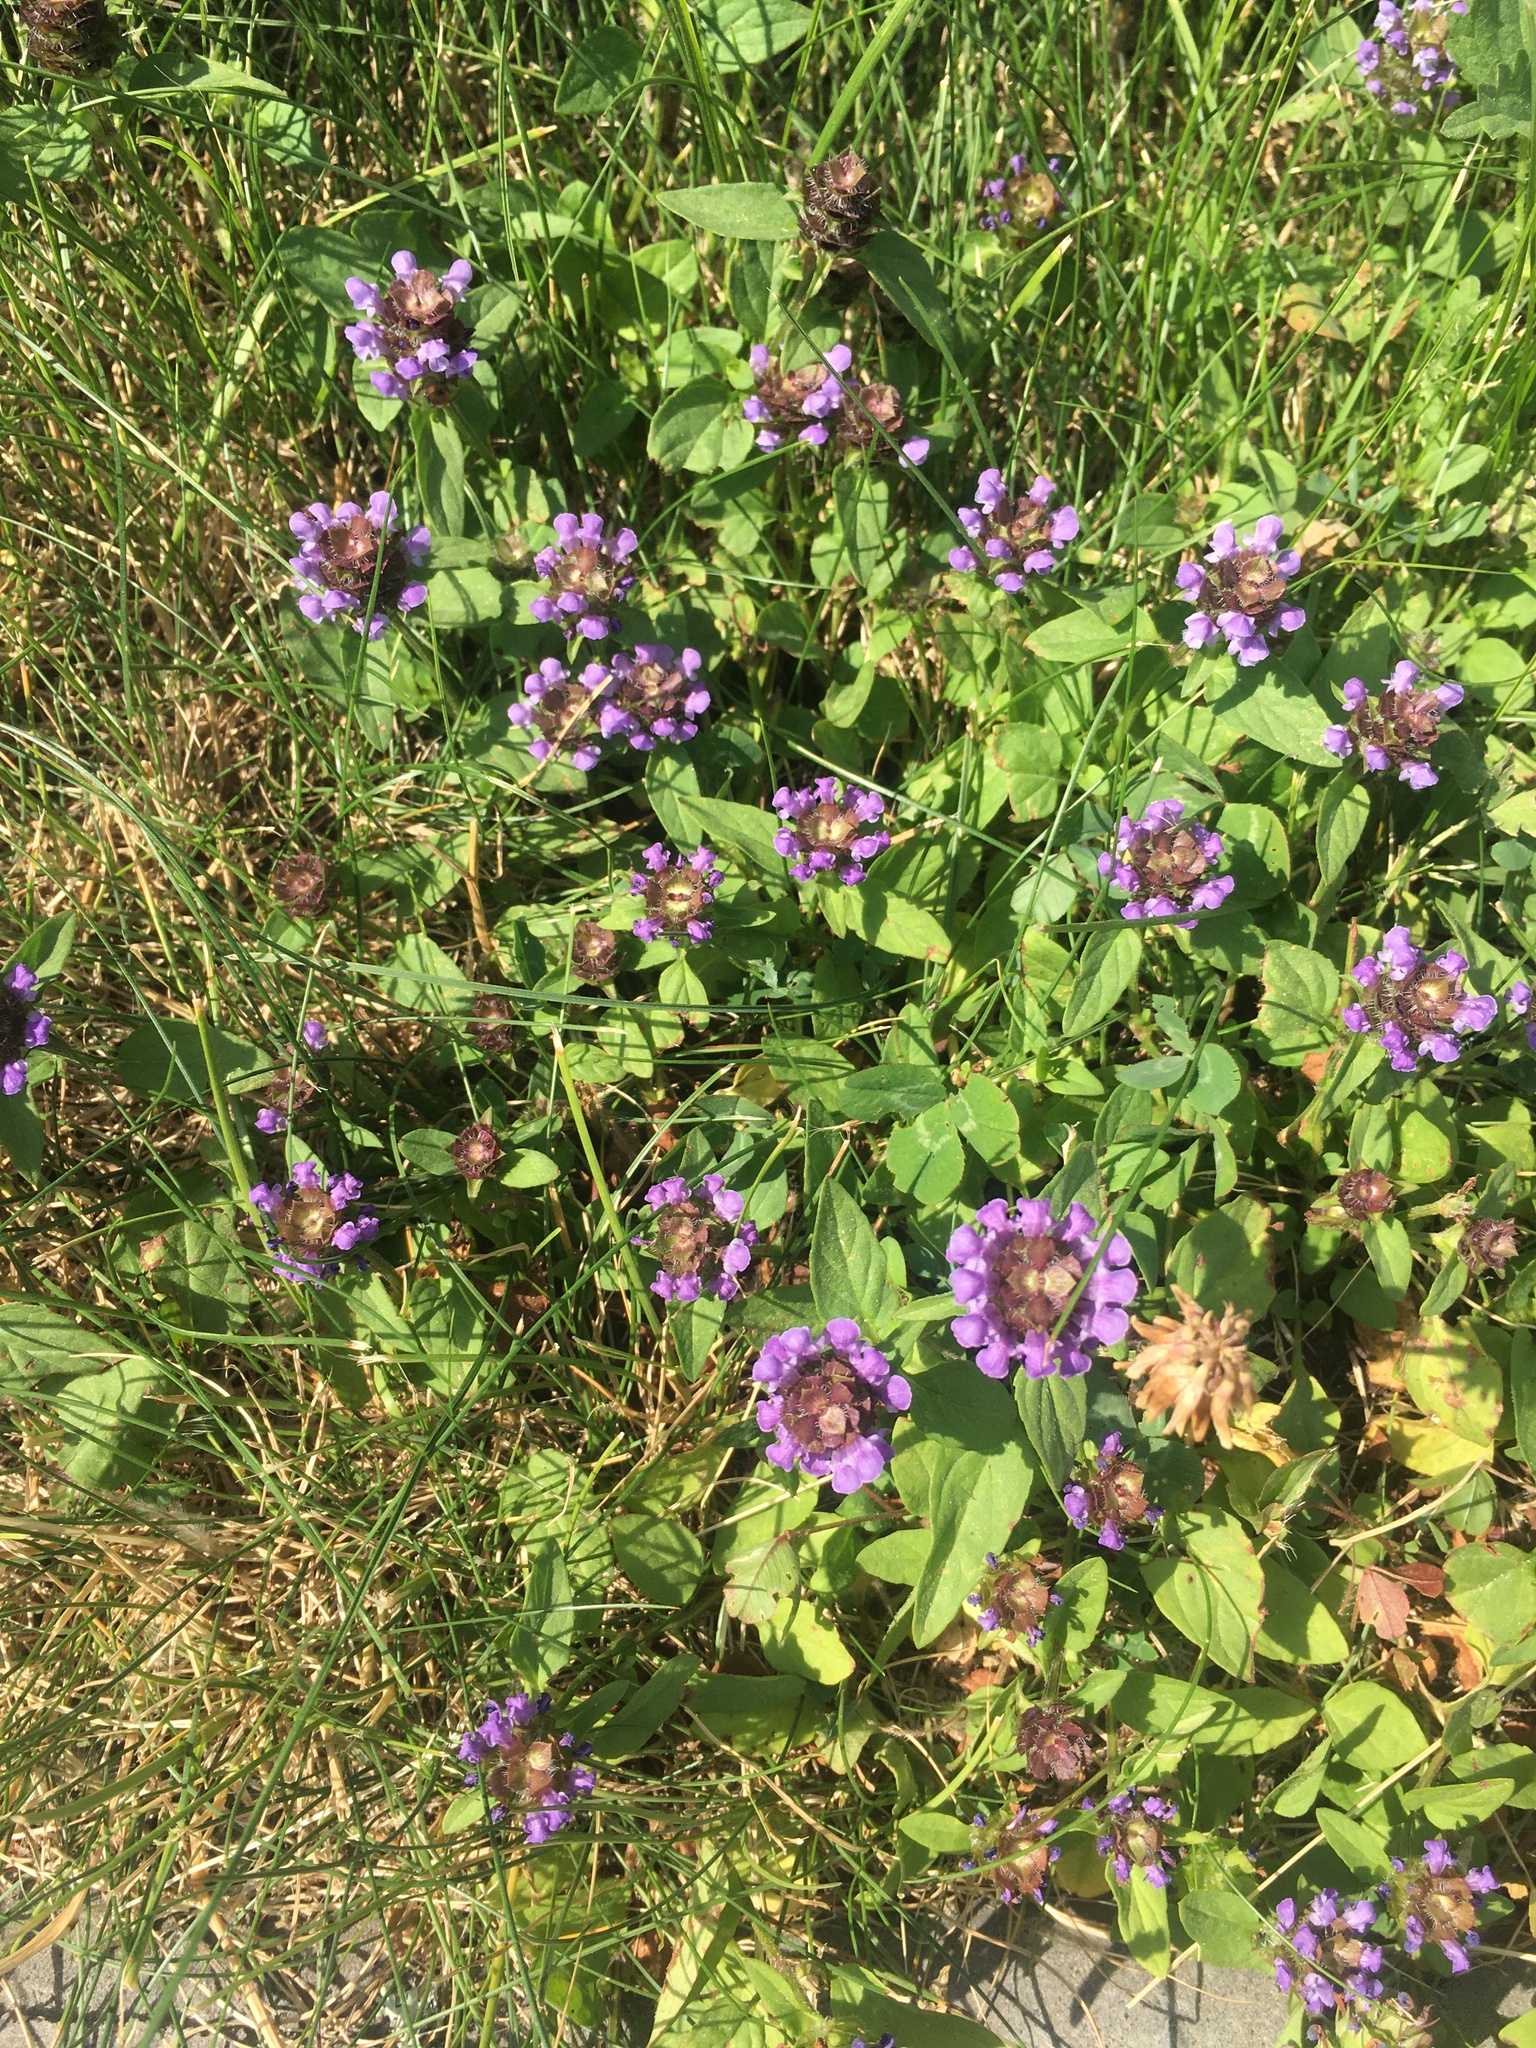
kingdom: Plantae
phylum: Tracheophyta
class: Magnoliopsida
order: Lamiales
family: Lamiaceae
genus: Prunella
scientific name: Prunella vulgaris
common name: Heal-all
